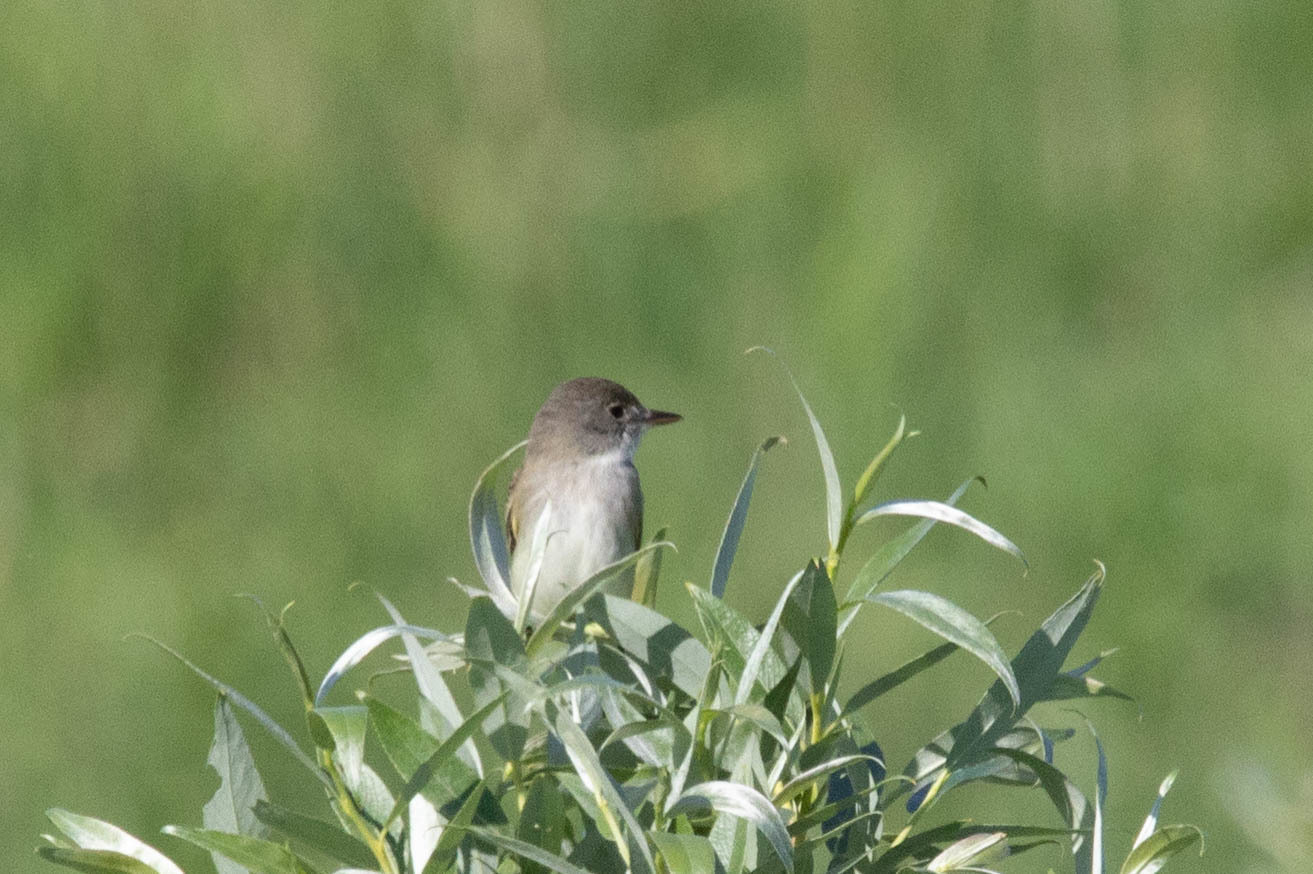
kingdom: Animalia
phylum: Chordata
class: Aves
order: Passeriformes
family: Tyrannidae
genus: Empidonax
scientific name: Empidonax traillii
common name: Willow flycatcher
